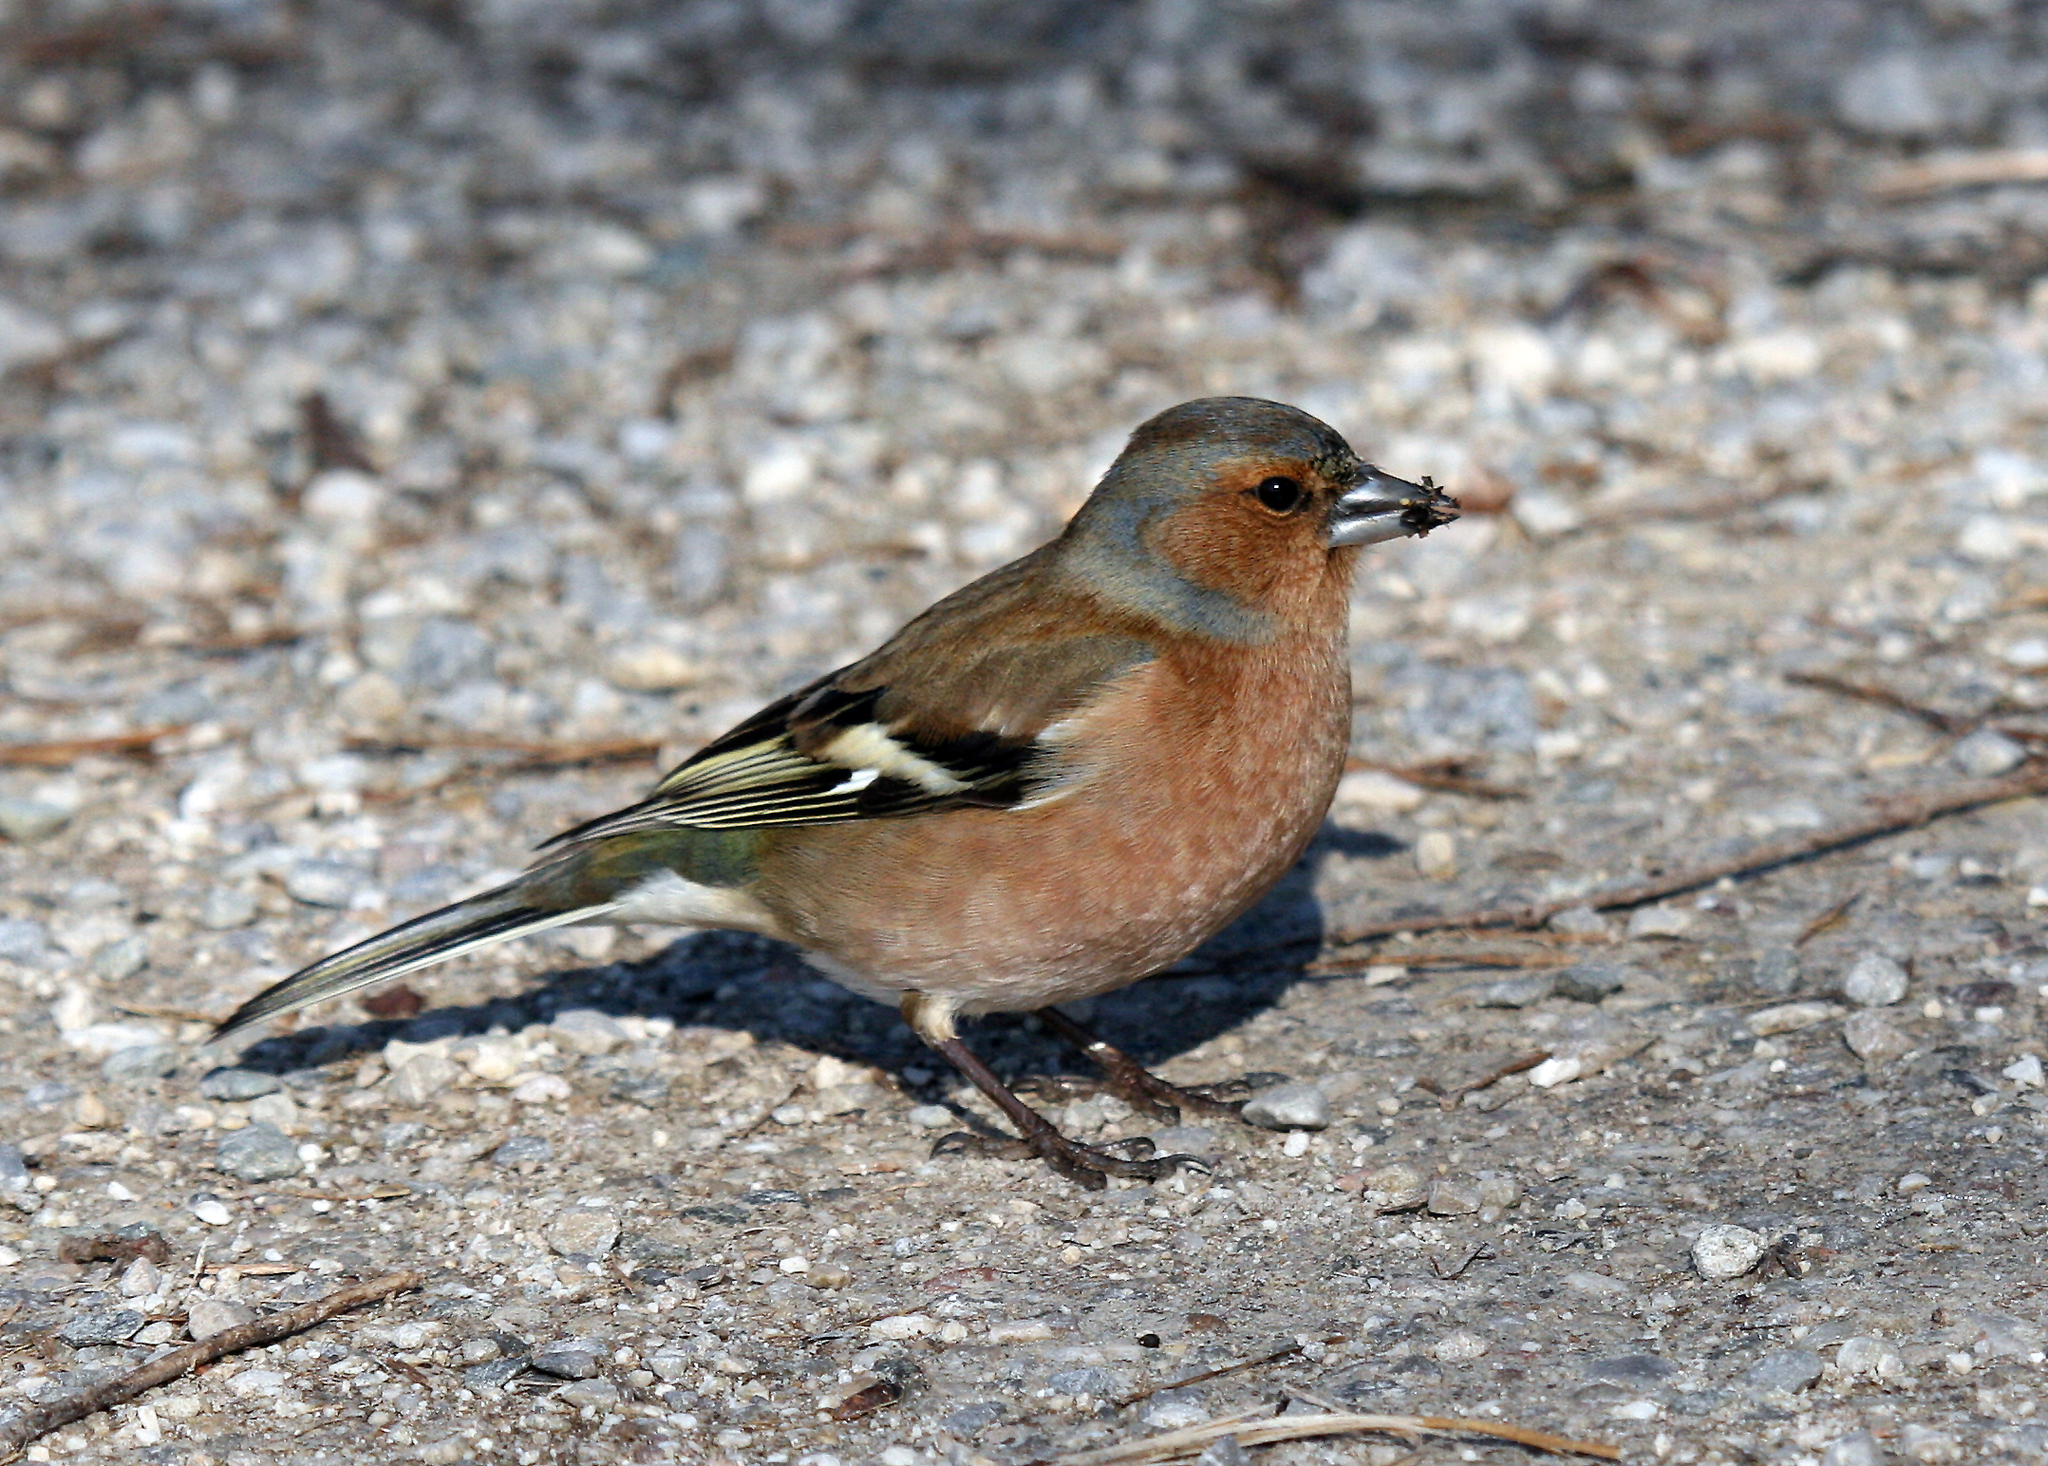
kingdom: Animalia
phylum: Chordata
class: Aves
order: Passeriformes
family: Fringillidae
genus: Fringilla
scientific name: Fringilla coelebs
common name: Common chaffinch
